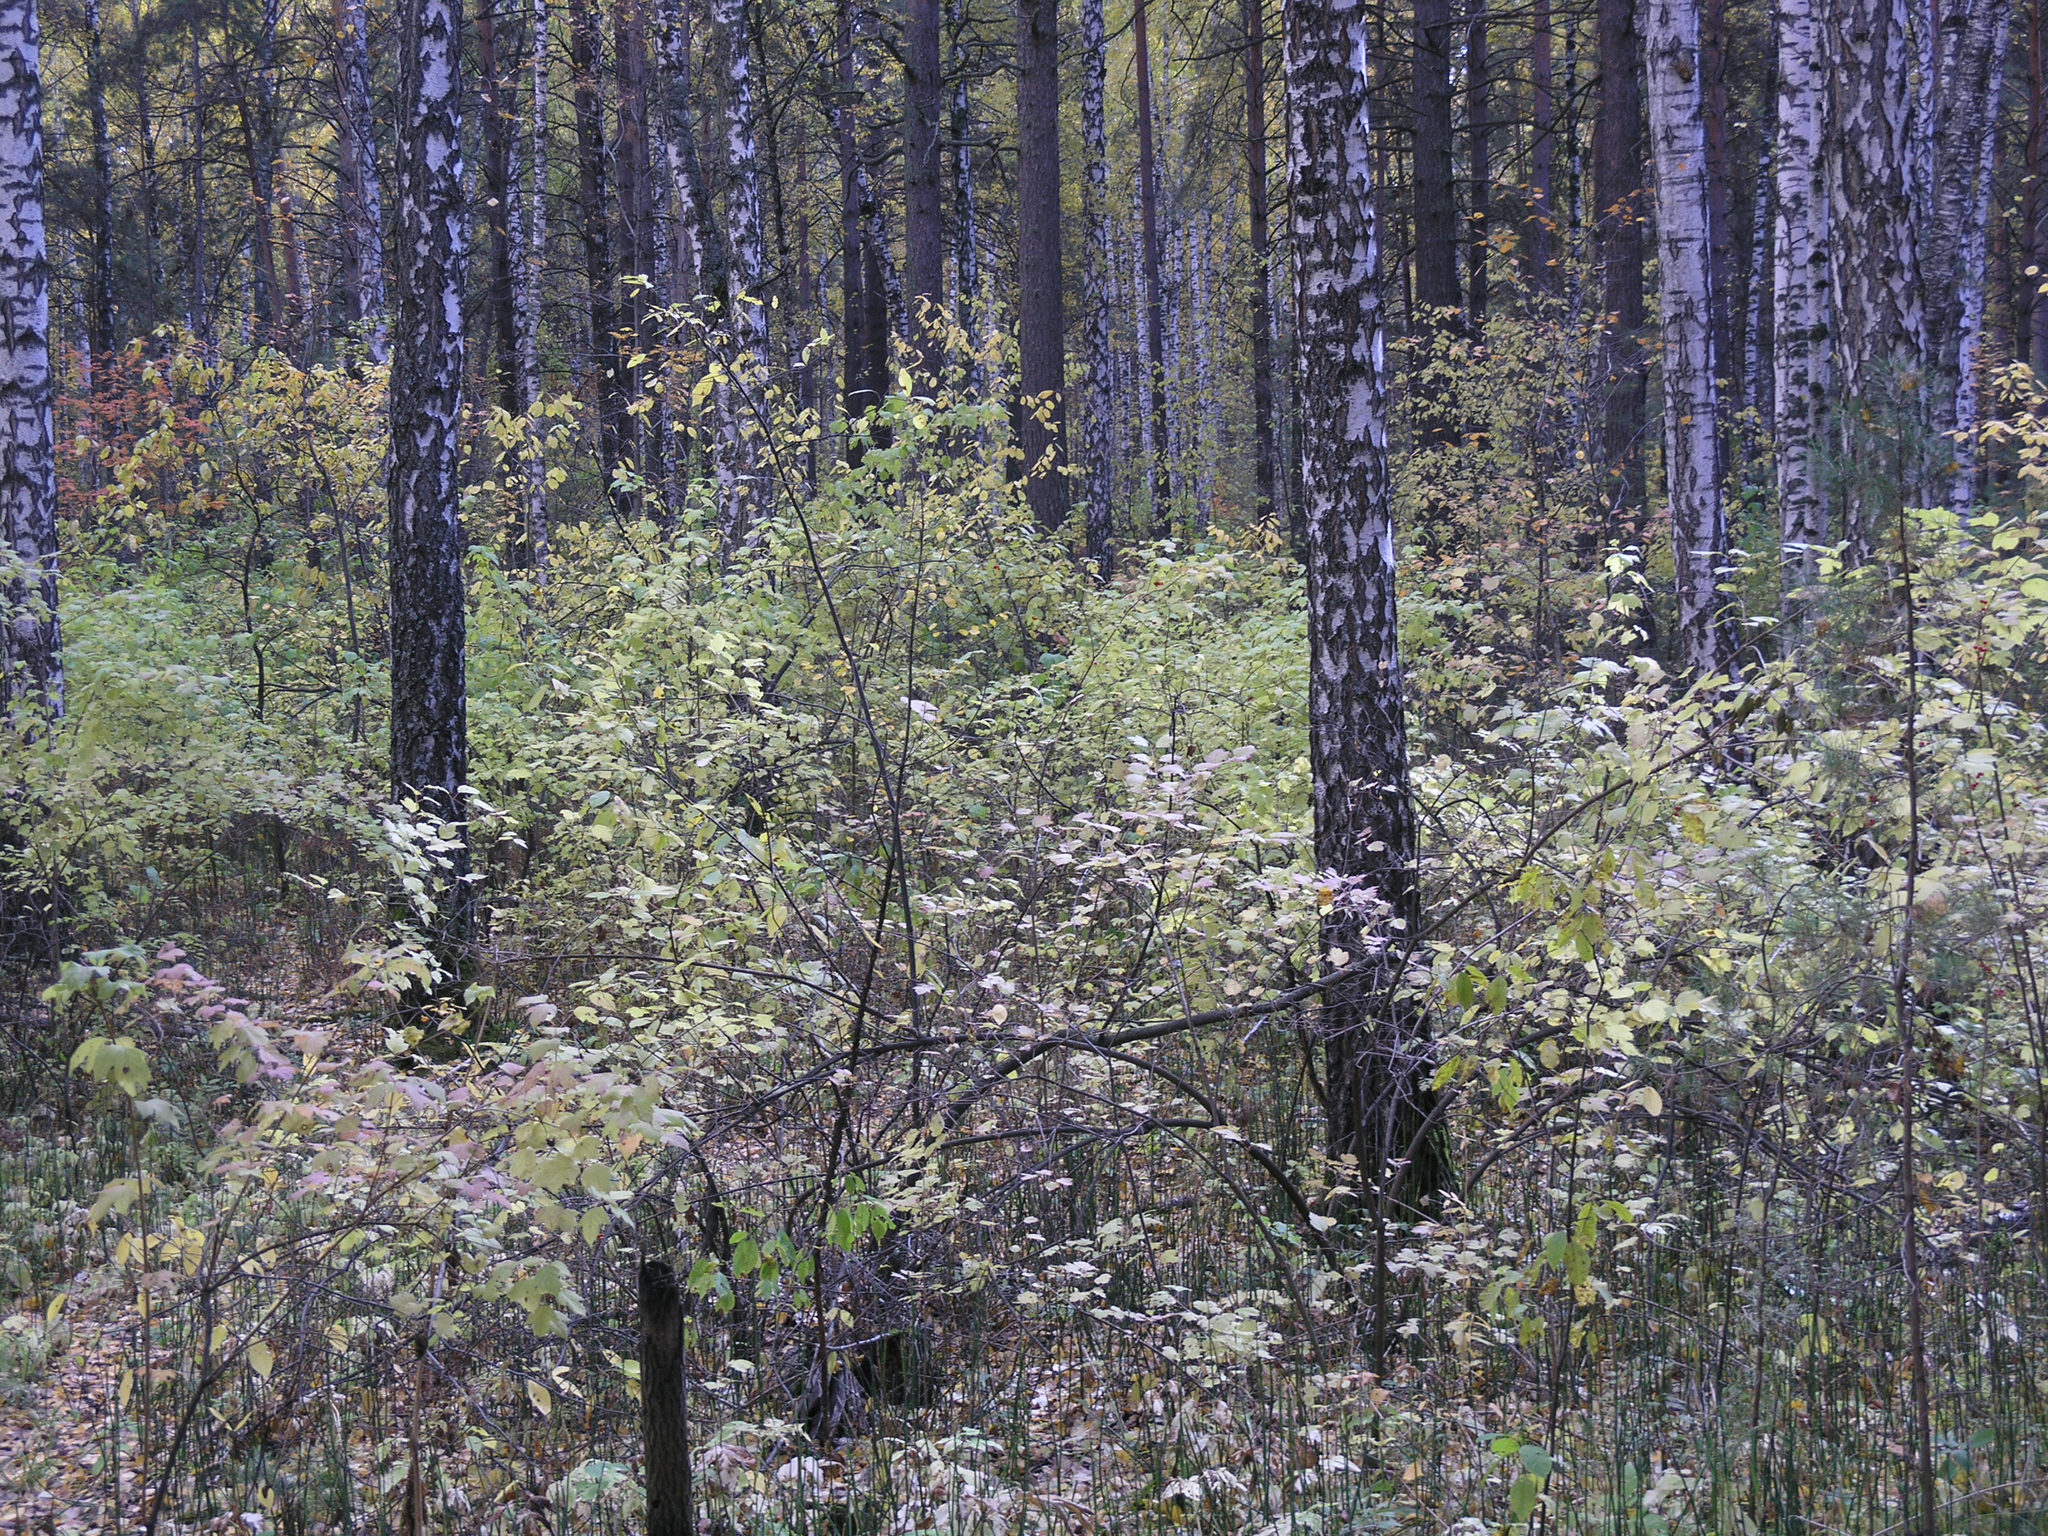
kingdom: Plantae
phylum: Tracheophyta
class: Magnoliopsida
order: Fagales
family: Betulaceae
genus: Betula
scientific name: Betula pendula
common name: Silver birch
